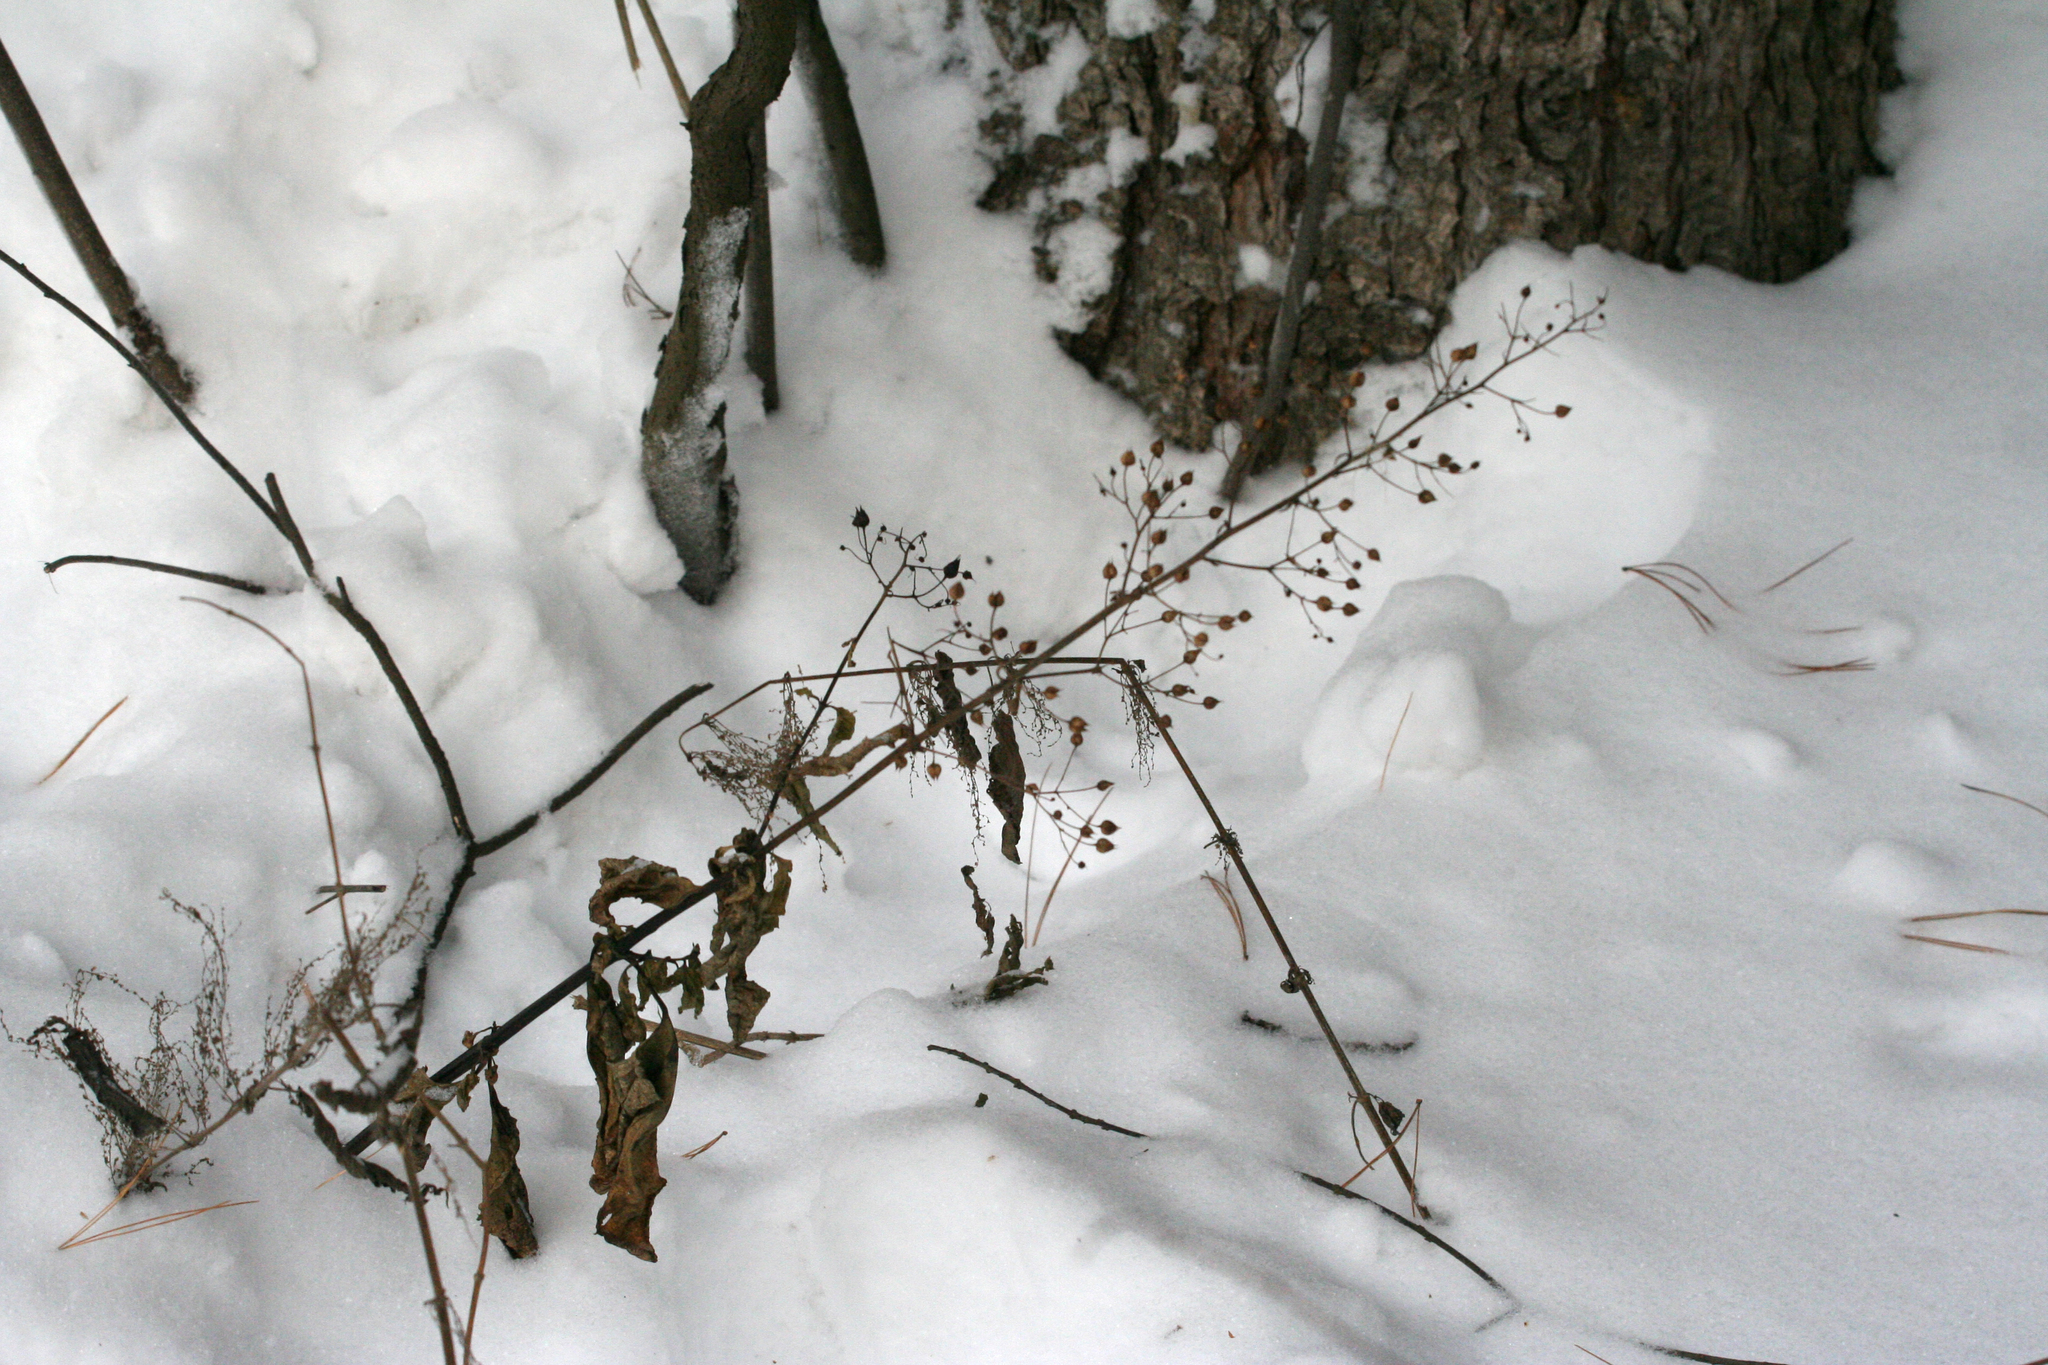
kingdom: Plantae
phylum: Tracheophyta
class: Magnoliopsida
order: Lamiales
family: Scrophulariaceae
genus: Scrophularia
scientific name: Scrophularia nodosa
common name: Common figwort
